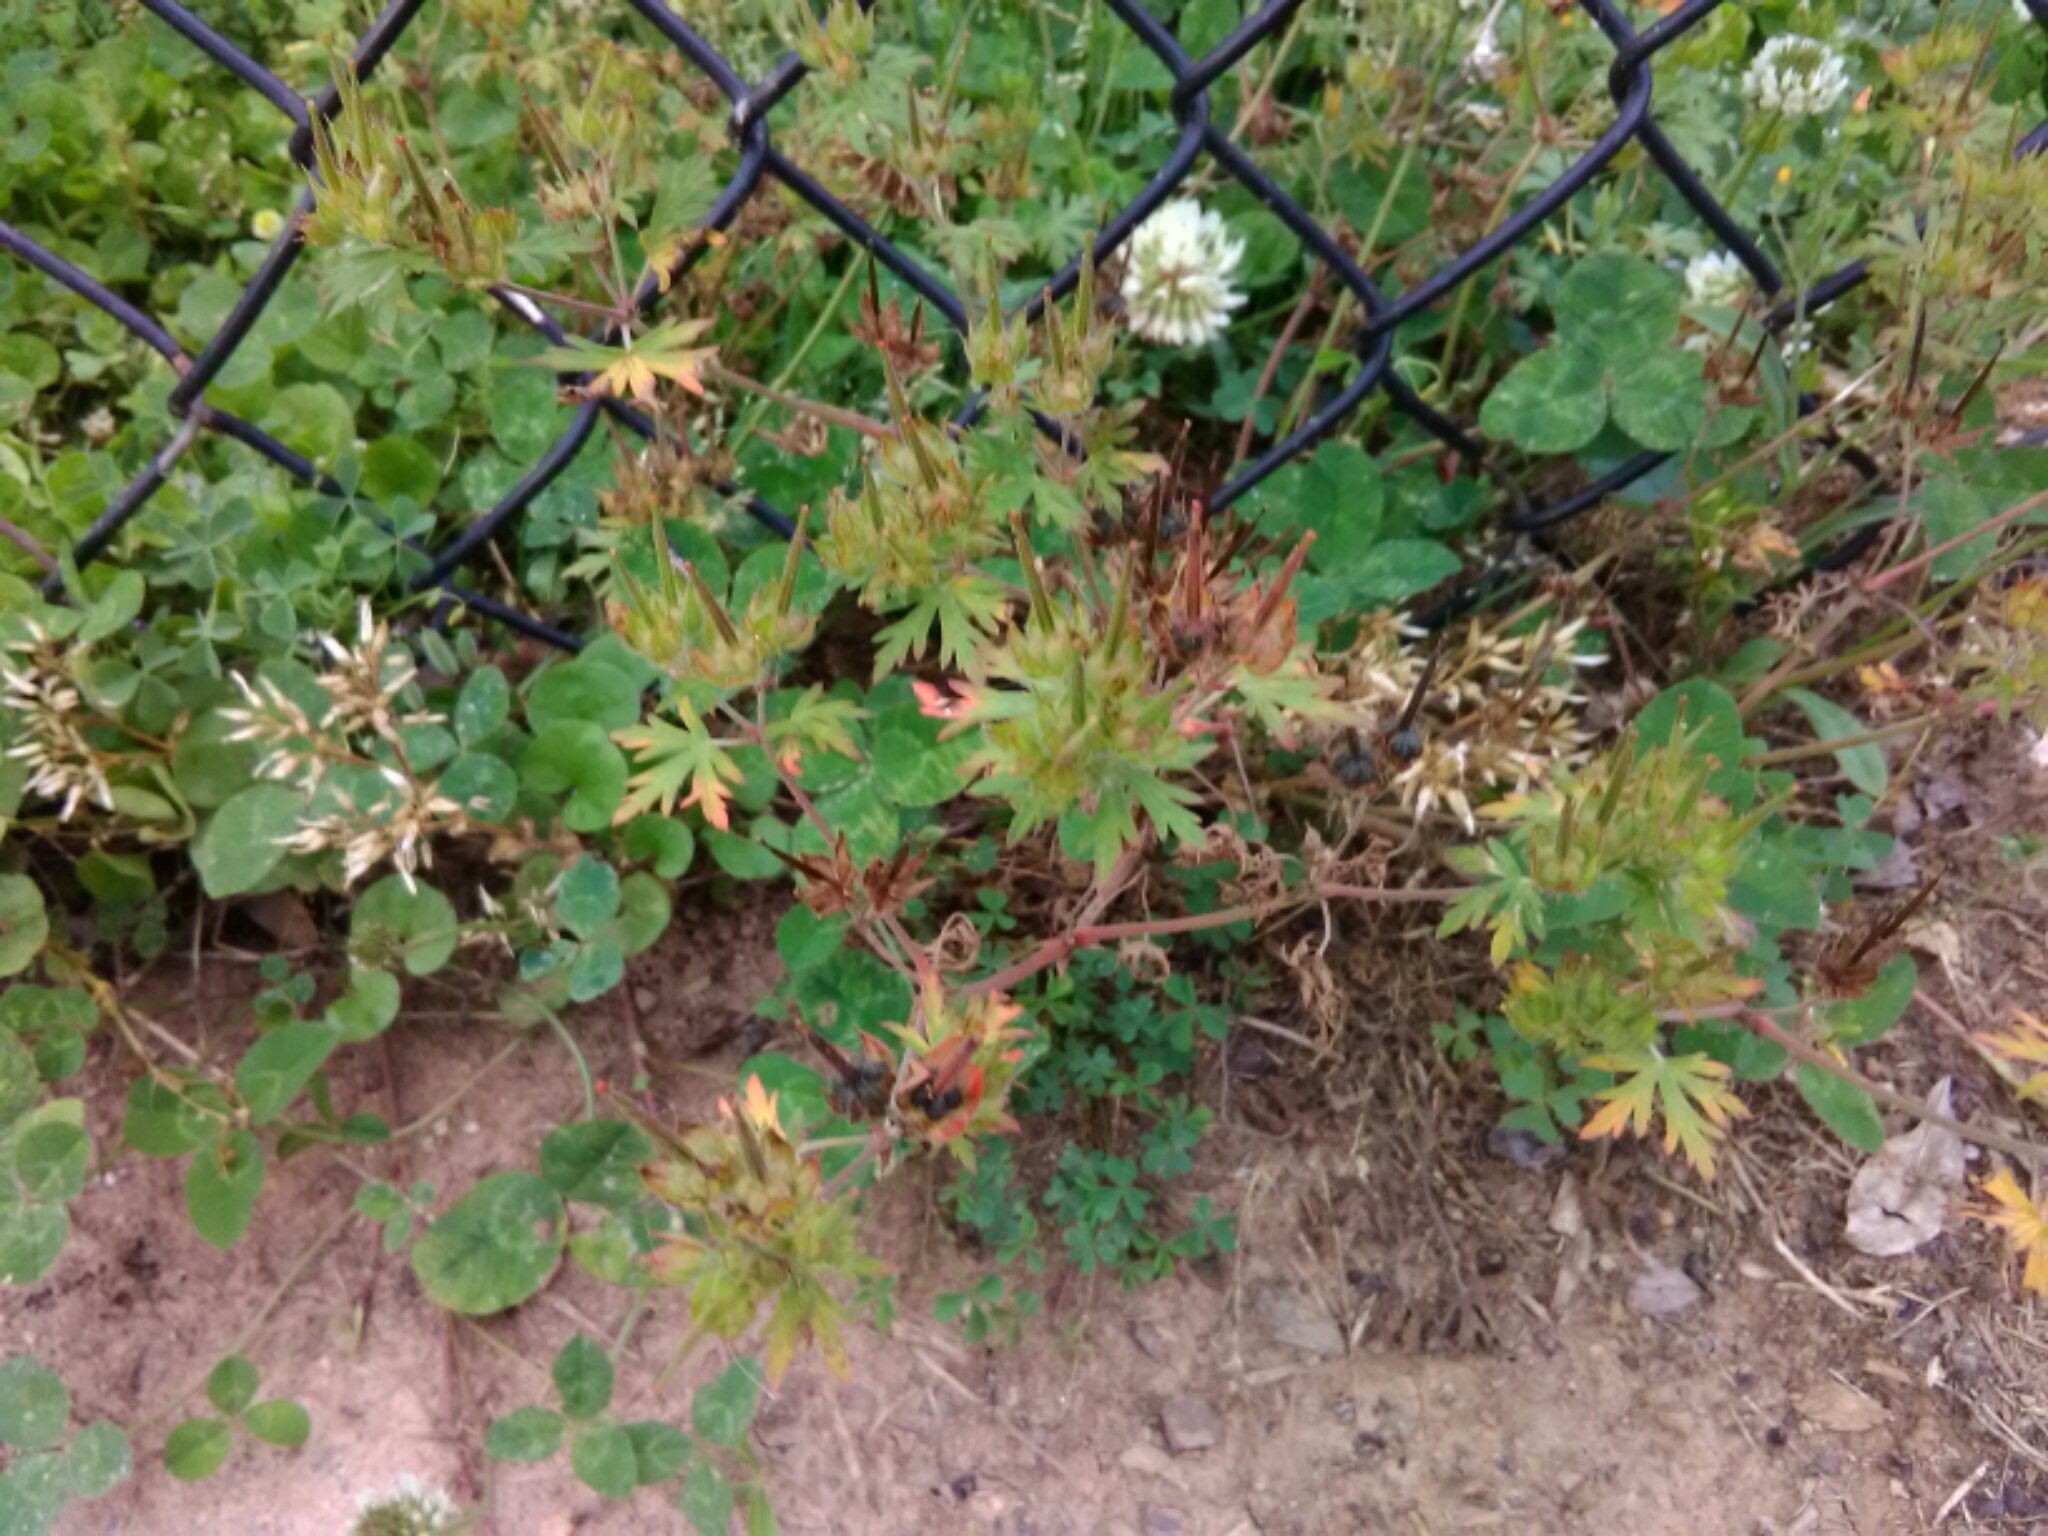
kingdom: Plantae
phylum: Tracheophyta
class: Magnoliopsida
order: Geraniales
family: Geraniaceae
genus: Geranium
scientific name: Geranium carolinianum
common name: Carolina crane's-bill
